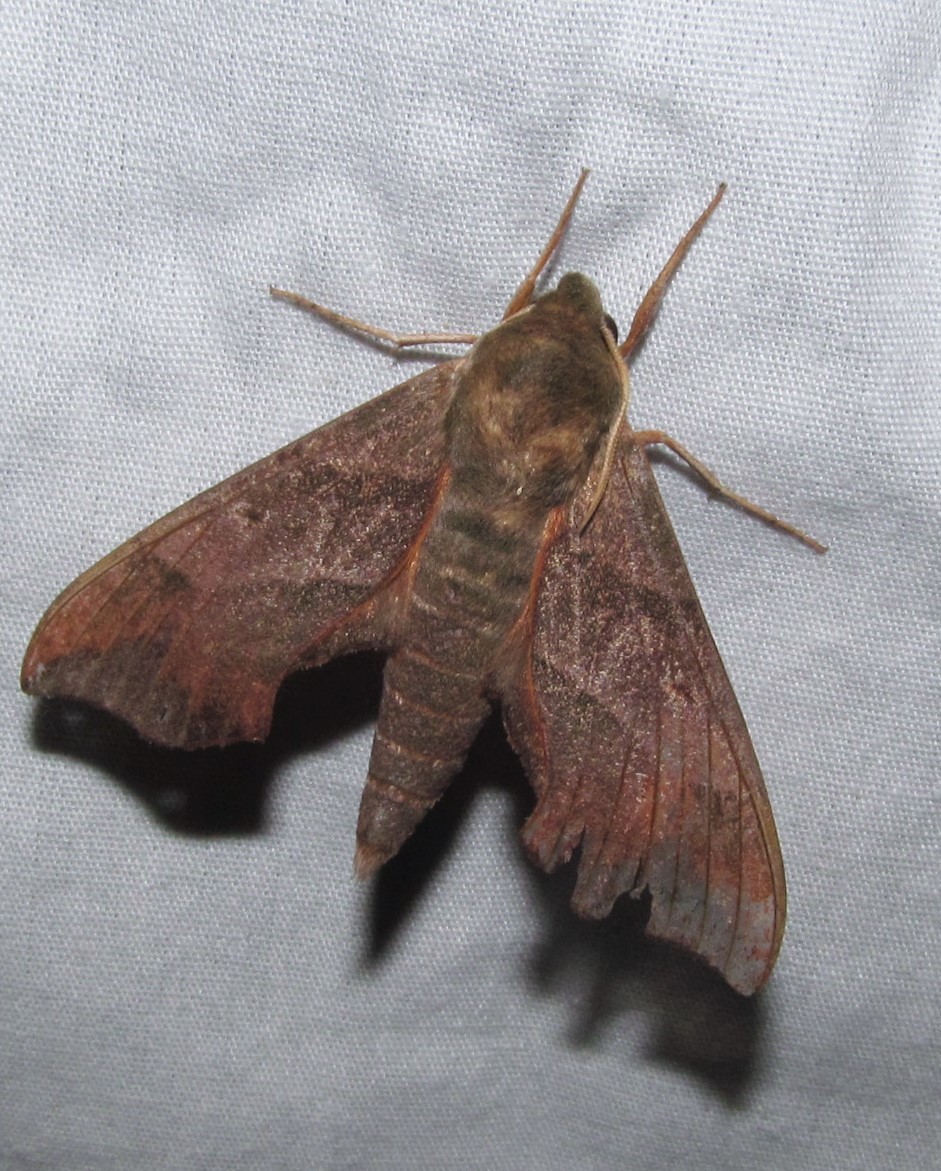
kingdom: Animalia
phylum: Arthropoda
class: Insecta
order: Lepidoptera
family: Sphingidae
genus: Darapsa
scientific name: Darapsa myron
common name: Hog sphinx
